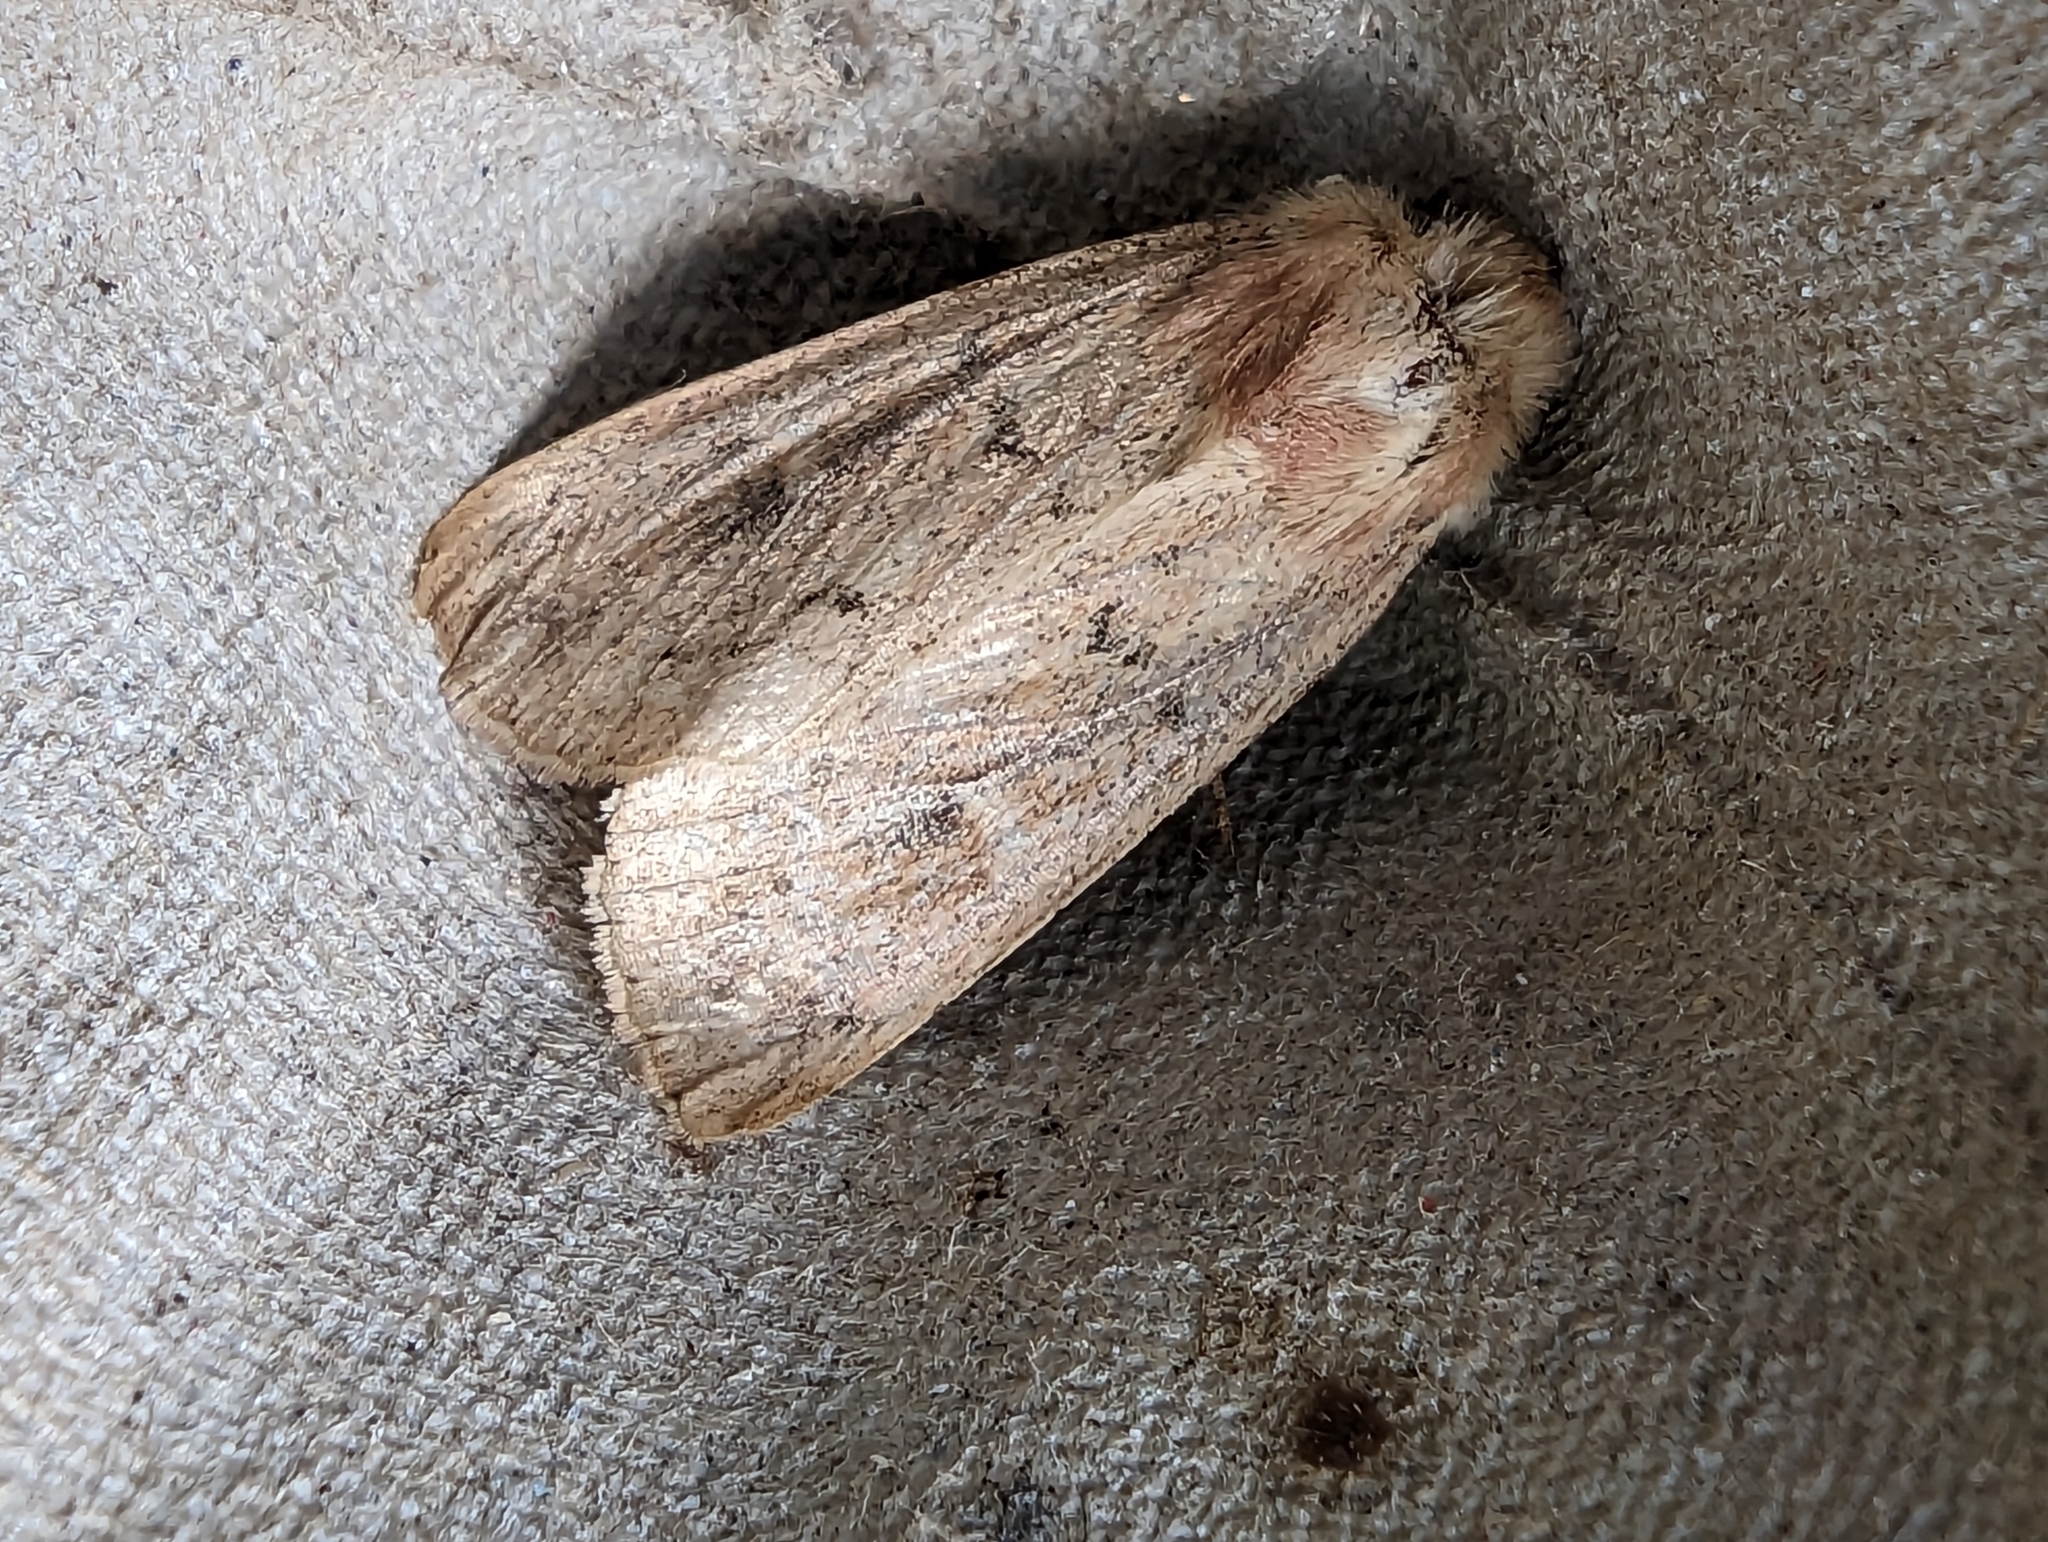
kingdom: Animalia
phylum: Arthropoda
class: Insecta
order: Lepidoptera
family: Noctuidae
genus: Mythimna
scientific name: Mythimna ferrago
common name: Clay
